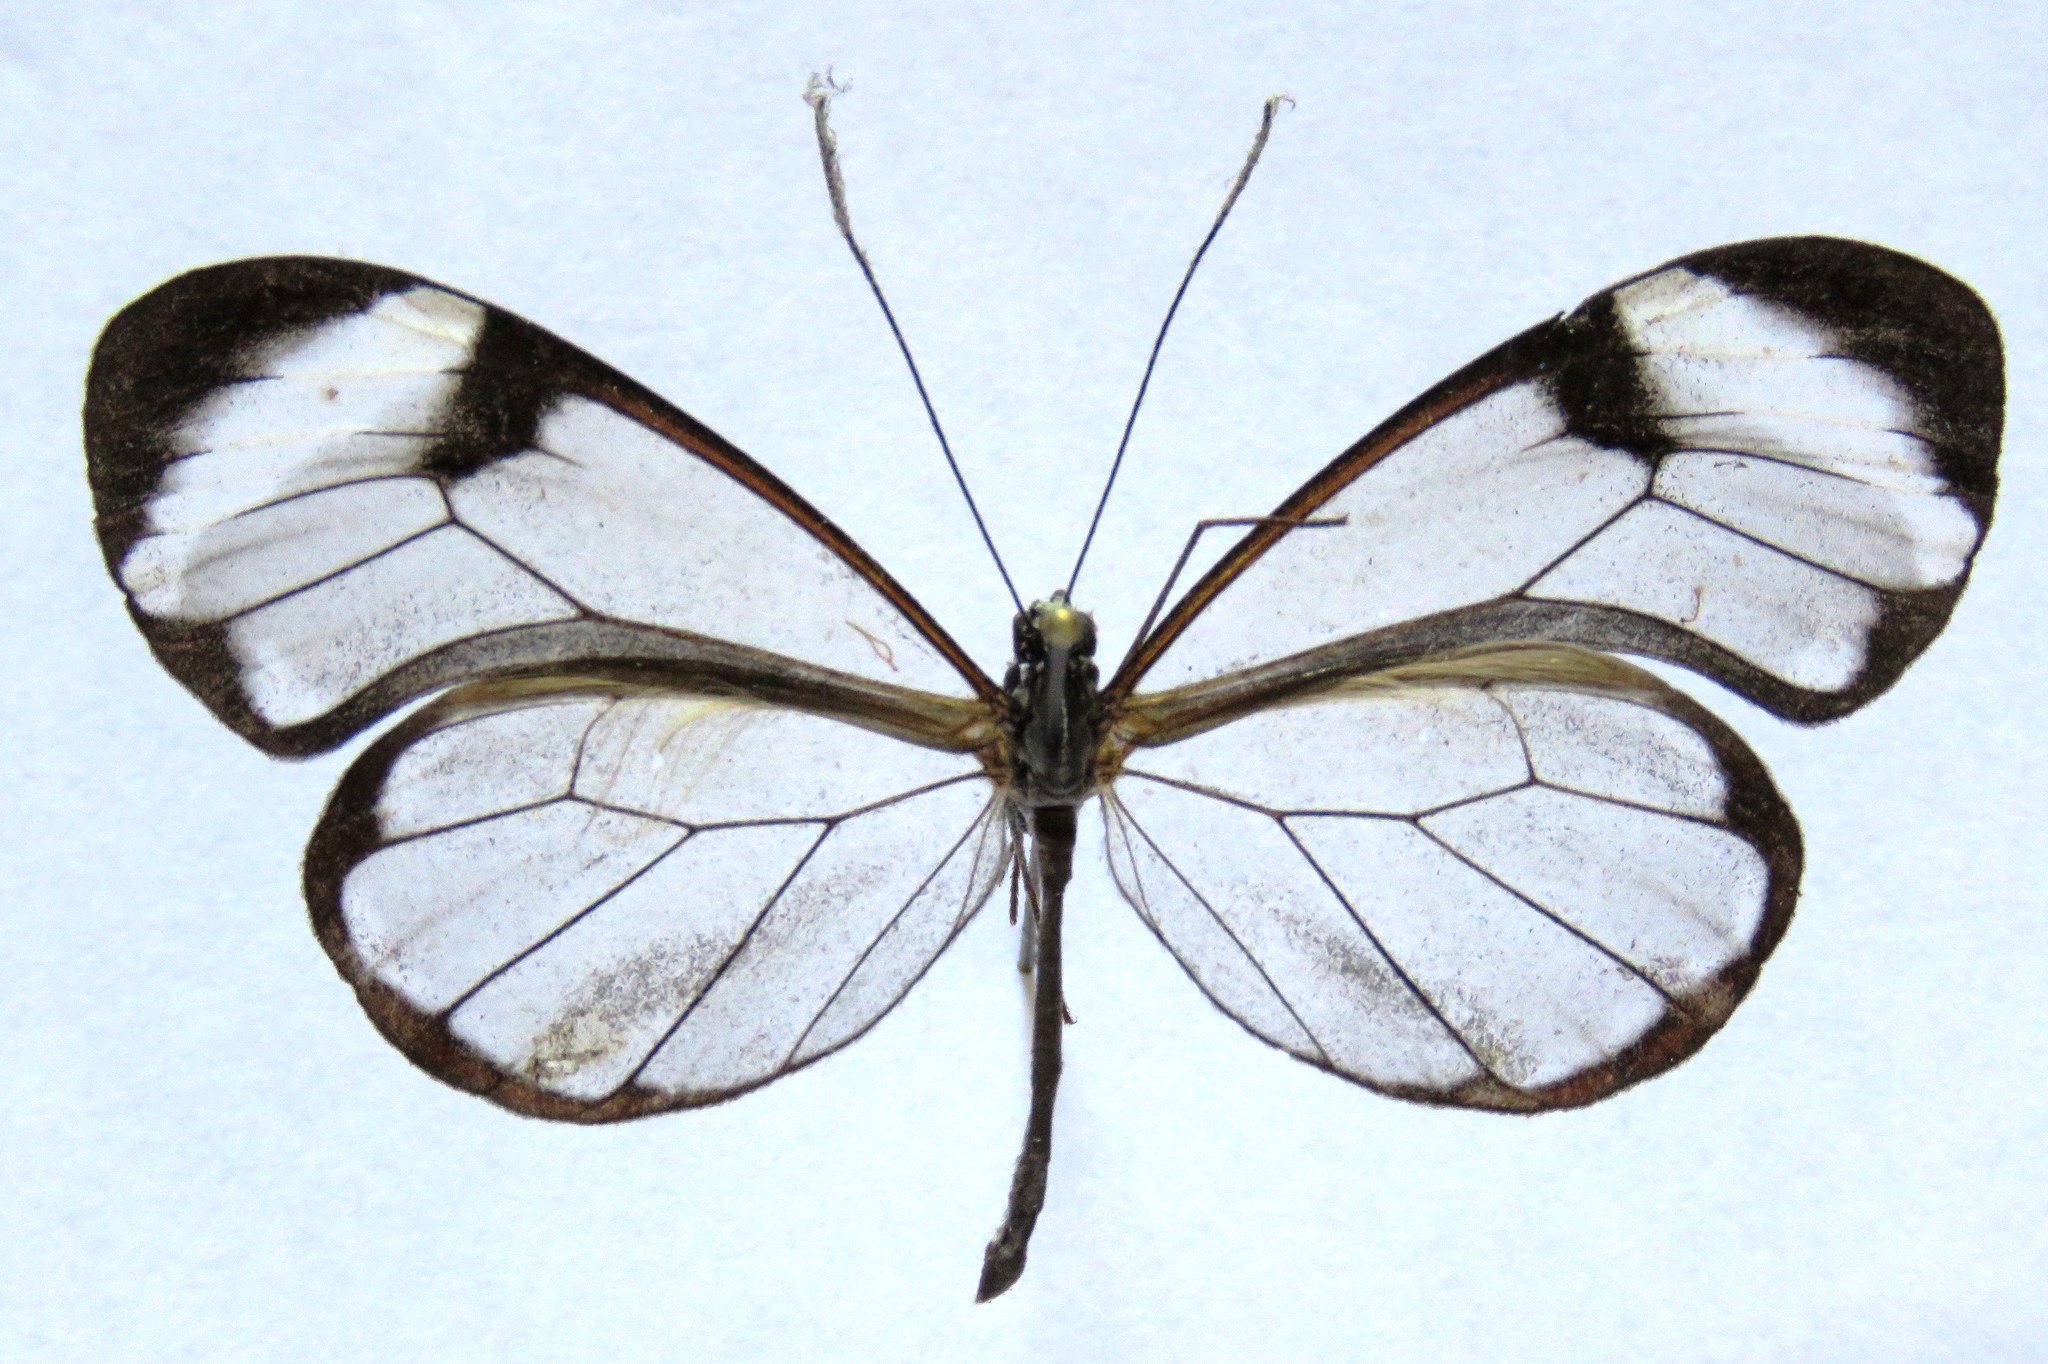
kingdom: Animalia
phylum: Arthropoda
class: Insecta
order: Lepidoptera
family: Nymphalidae
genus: Greta
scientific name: Greta morgane
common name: Thick-tipped greta
